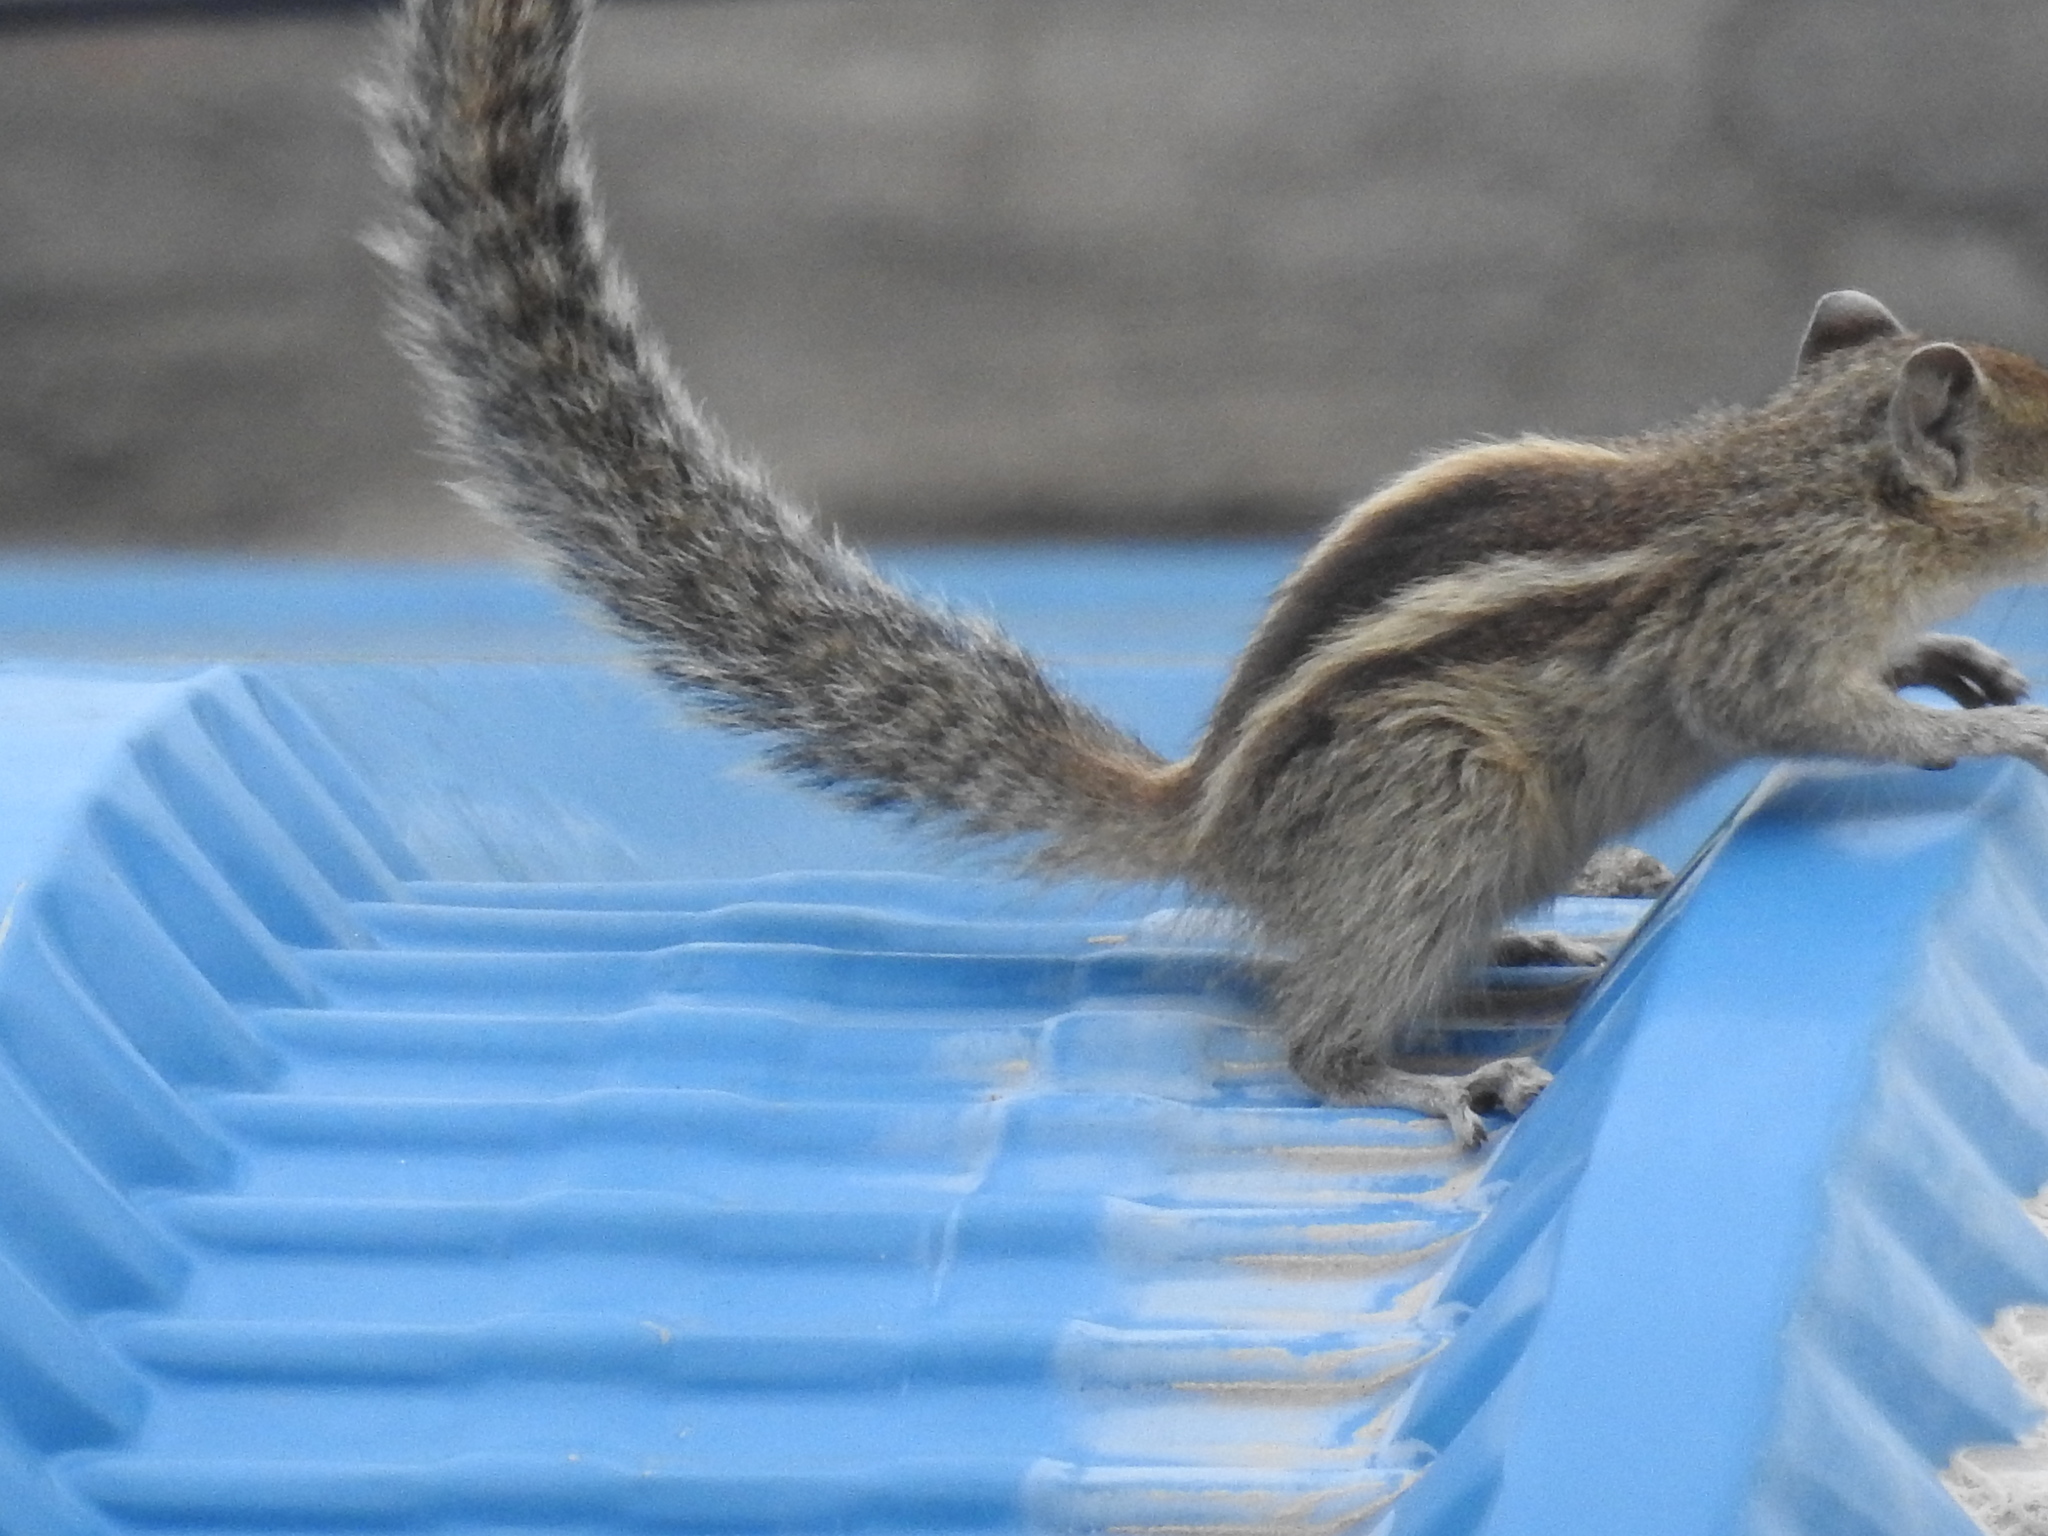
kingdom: Animalia
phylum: Chordata
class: Mammalia
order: Rodentia
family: Sciuridae
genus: Funambulus
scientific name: Funambulus palmarum
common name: Indian palm squirrel
